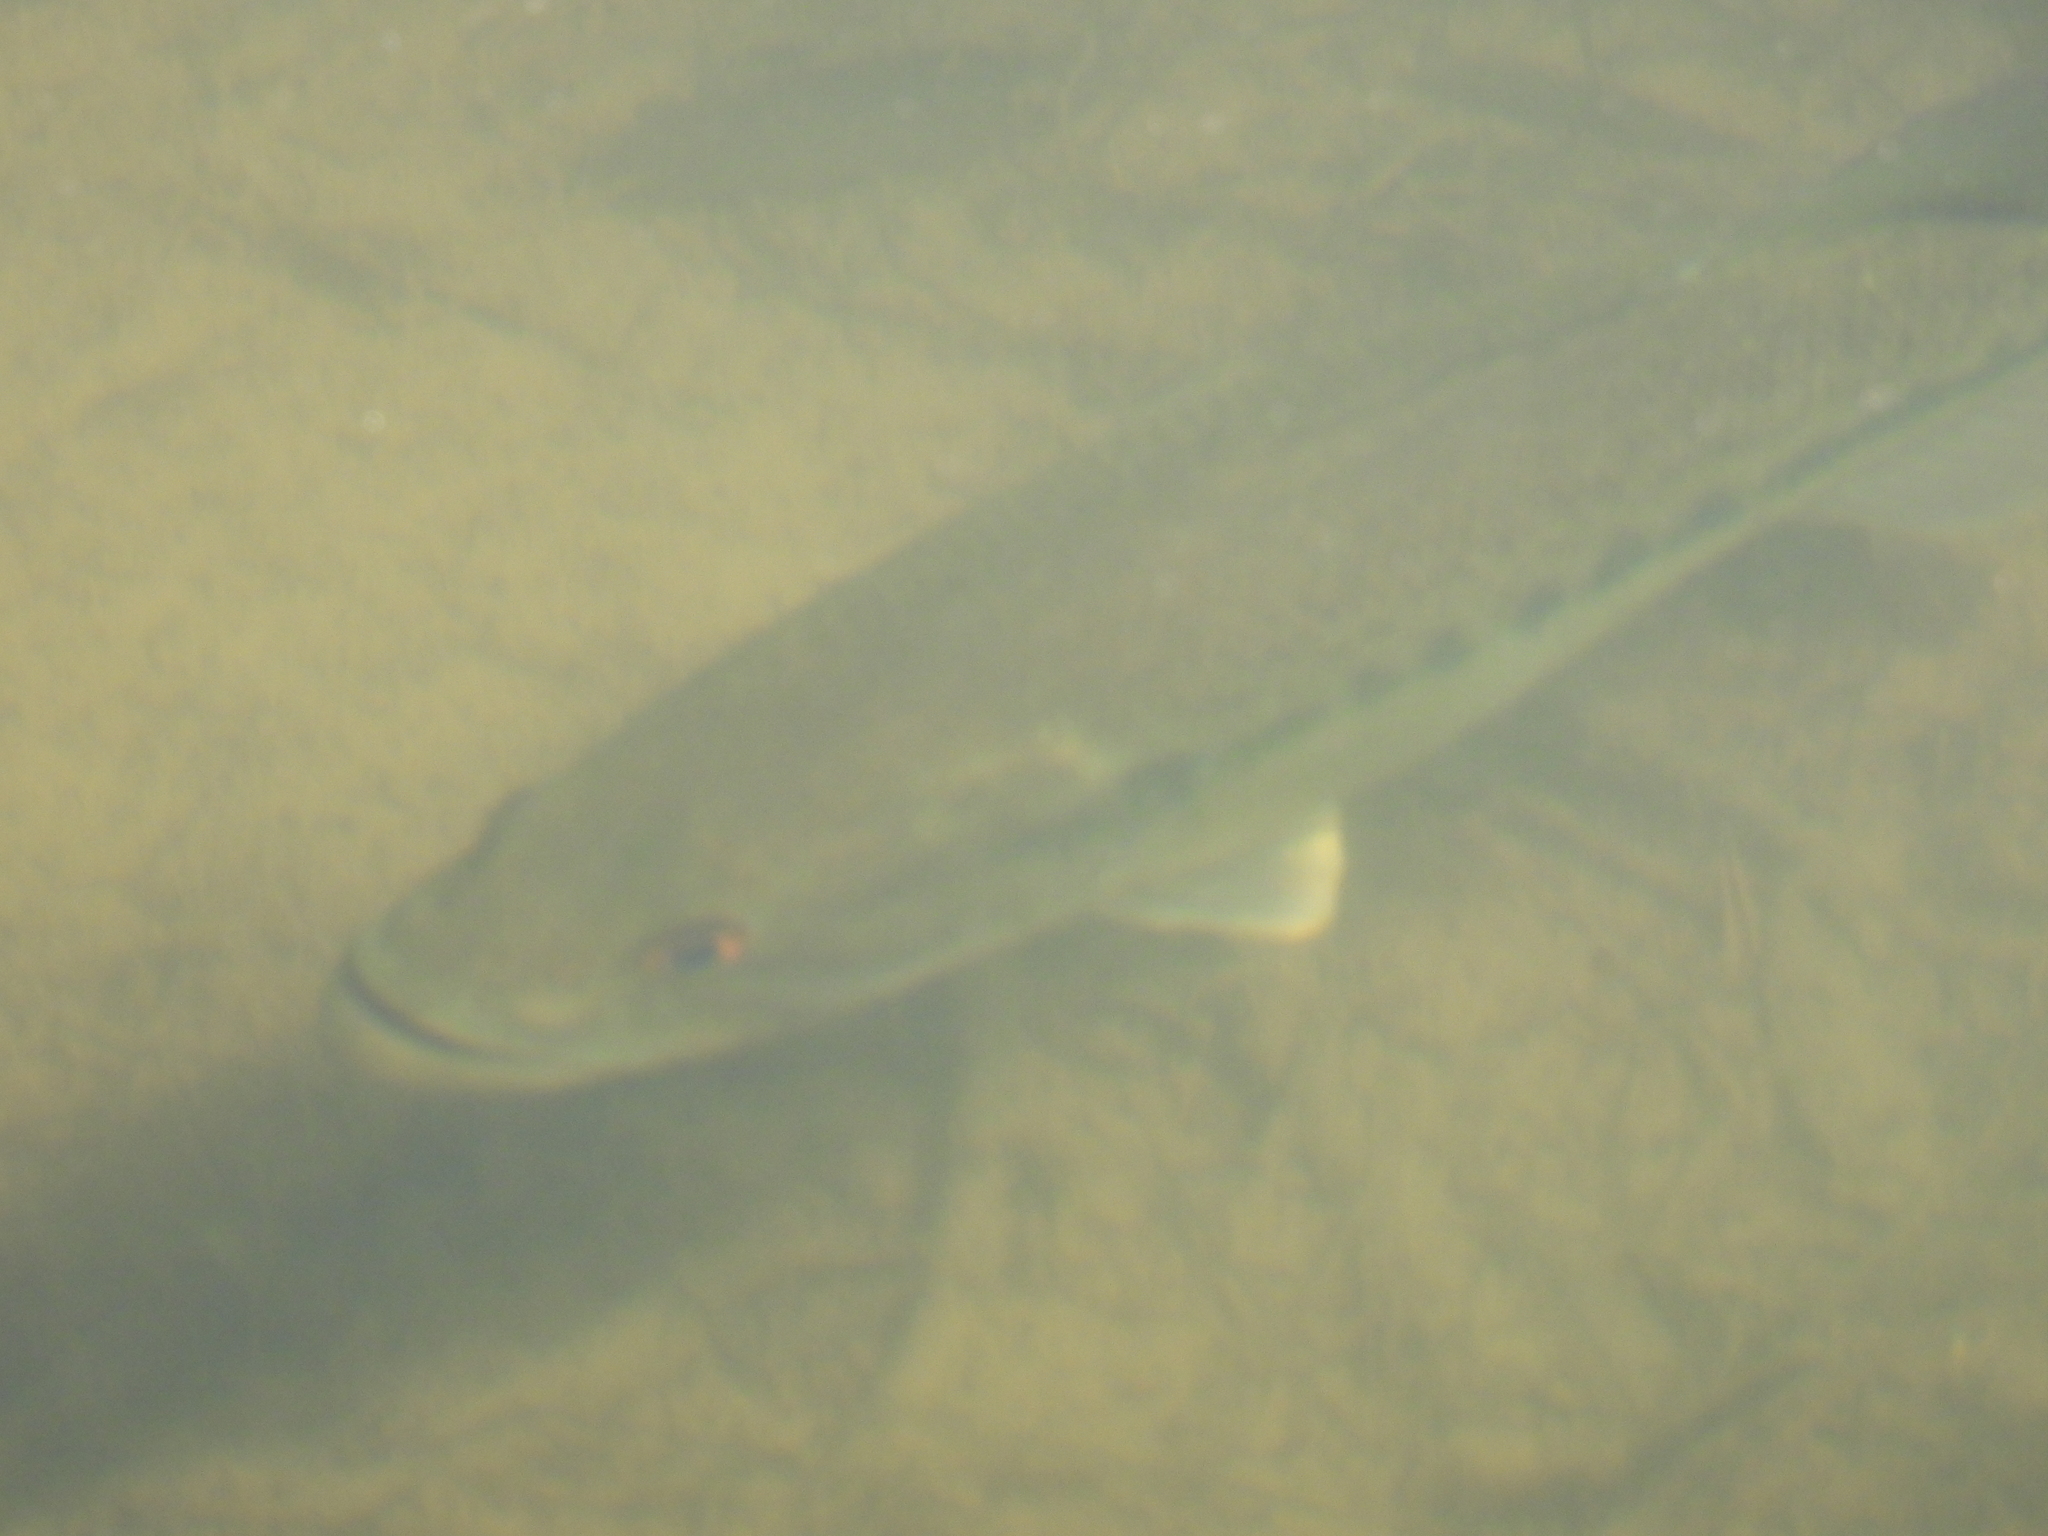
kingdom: Animalia
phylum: Chordata
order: Perciformes
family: Centrarchidae
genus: Micropterus
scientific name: Micropterus
